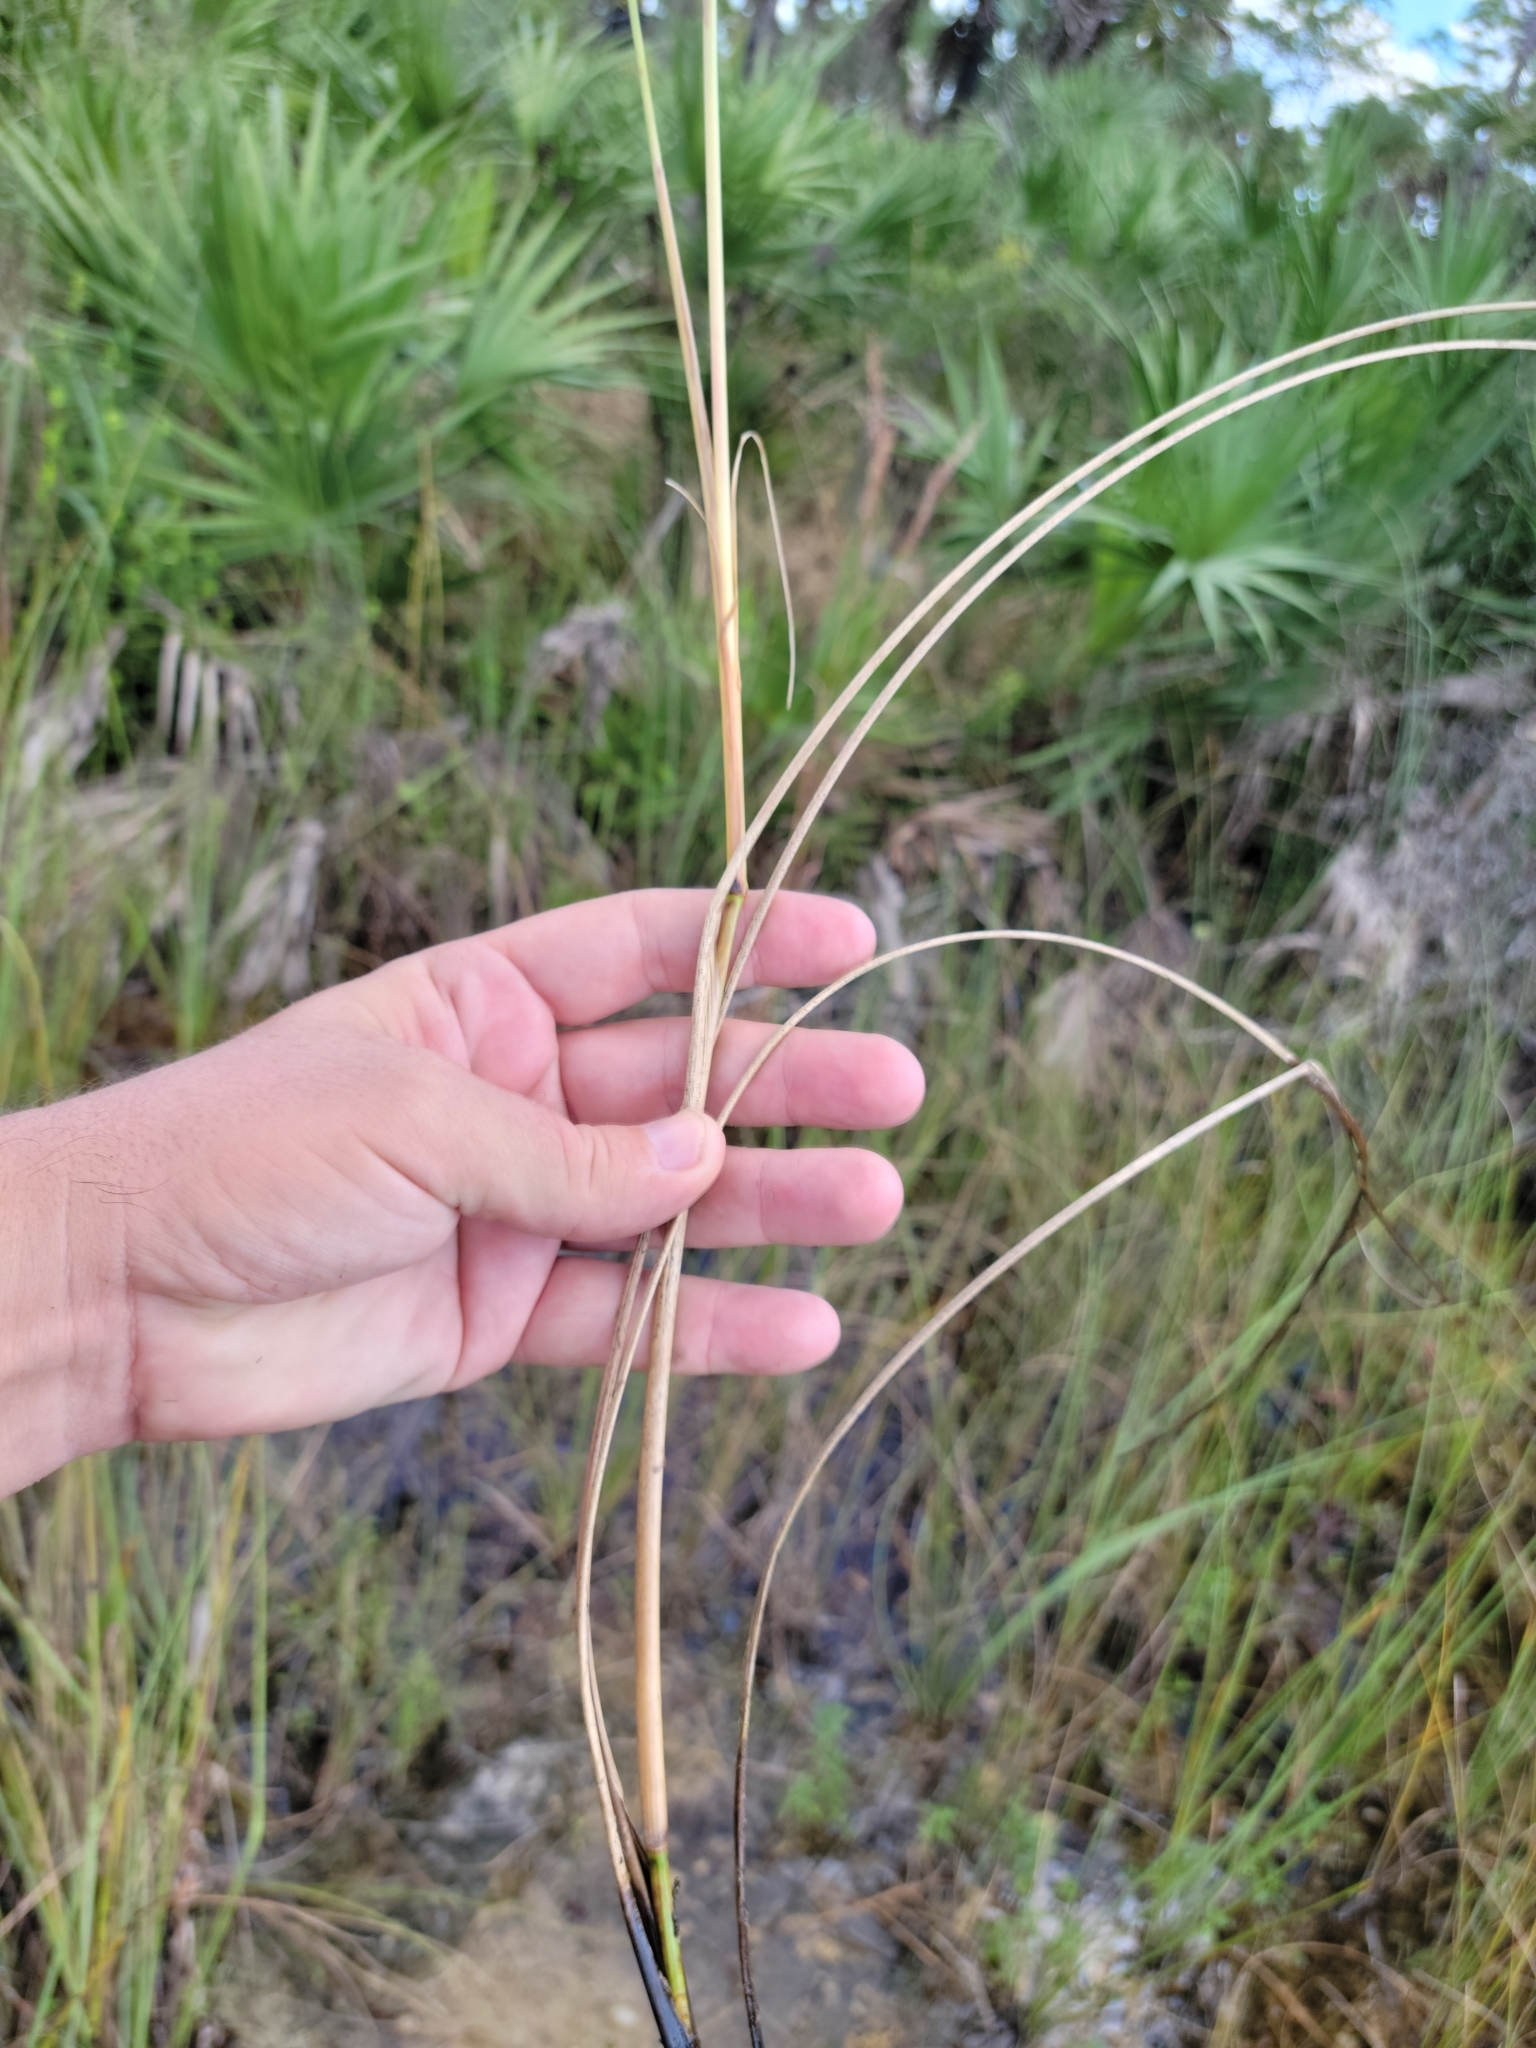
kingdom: Plantae
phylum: Tracheophyta
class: Liliopsida
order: Poales
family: Poaceae
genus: Paspalum
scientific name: Paspalum monostachyum
